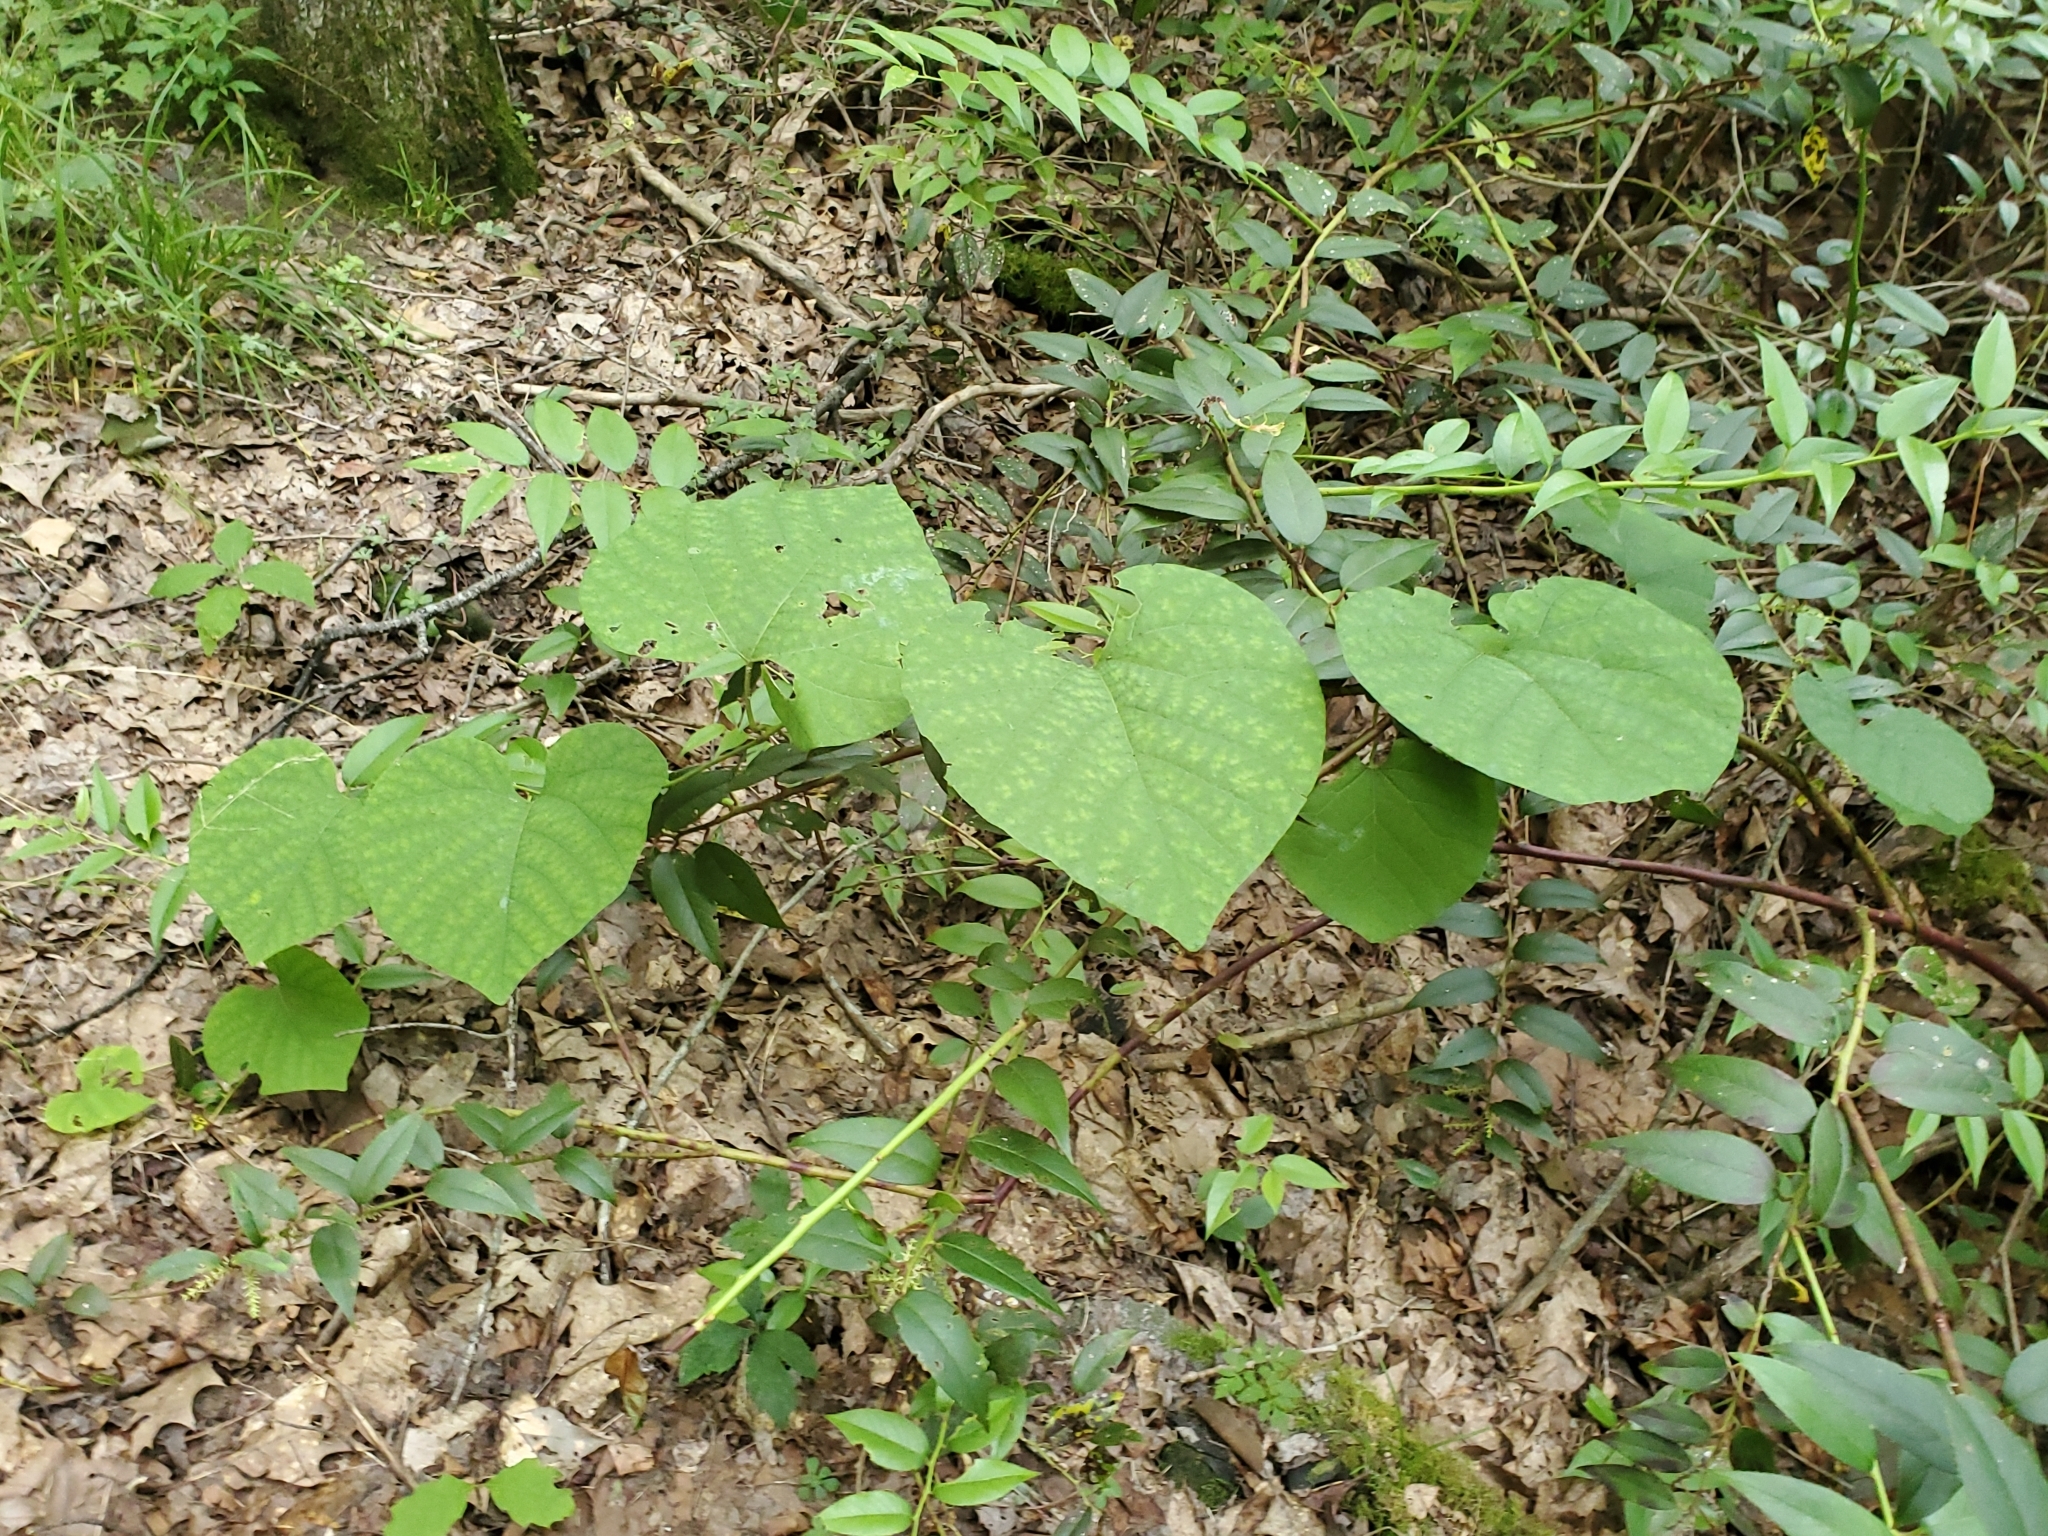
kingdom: Plantae
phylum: Tracheophyta
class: Magnoliopsida
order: Piperales
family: Aristolochiaceae
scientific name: Aristolochiaceae
